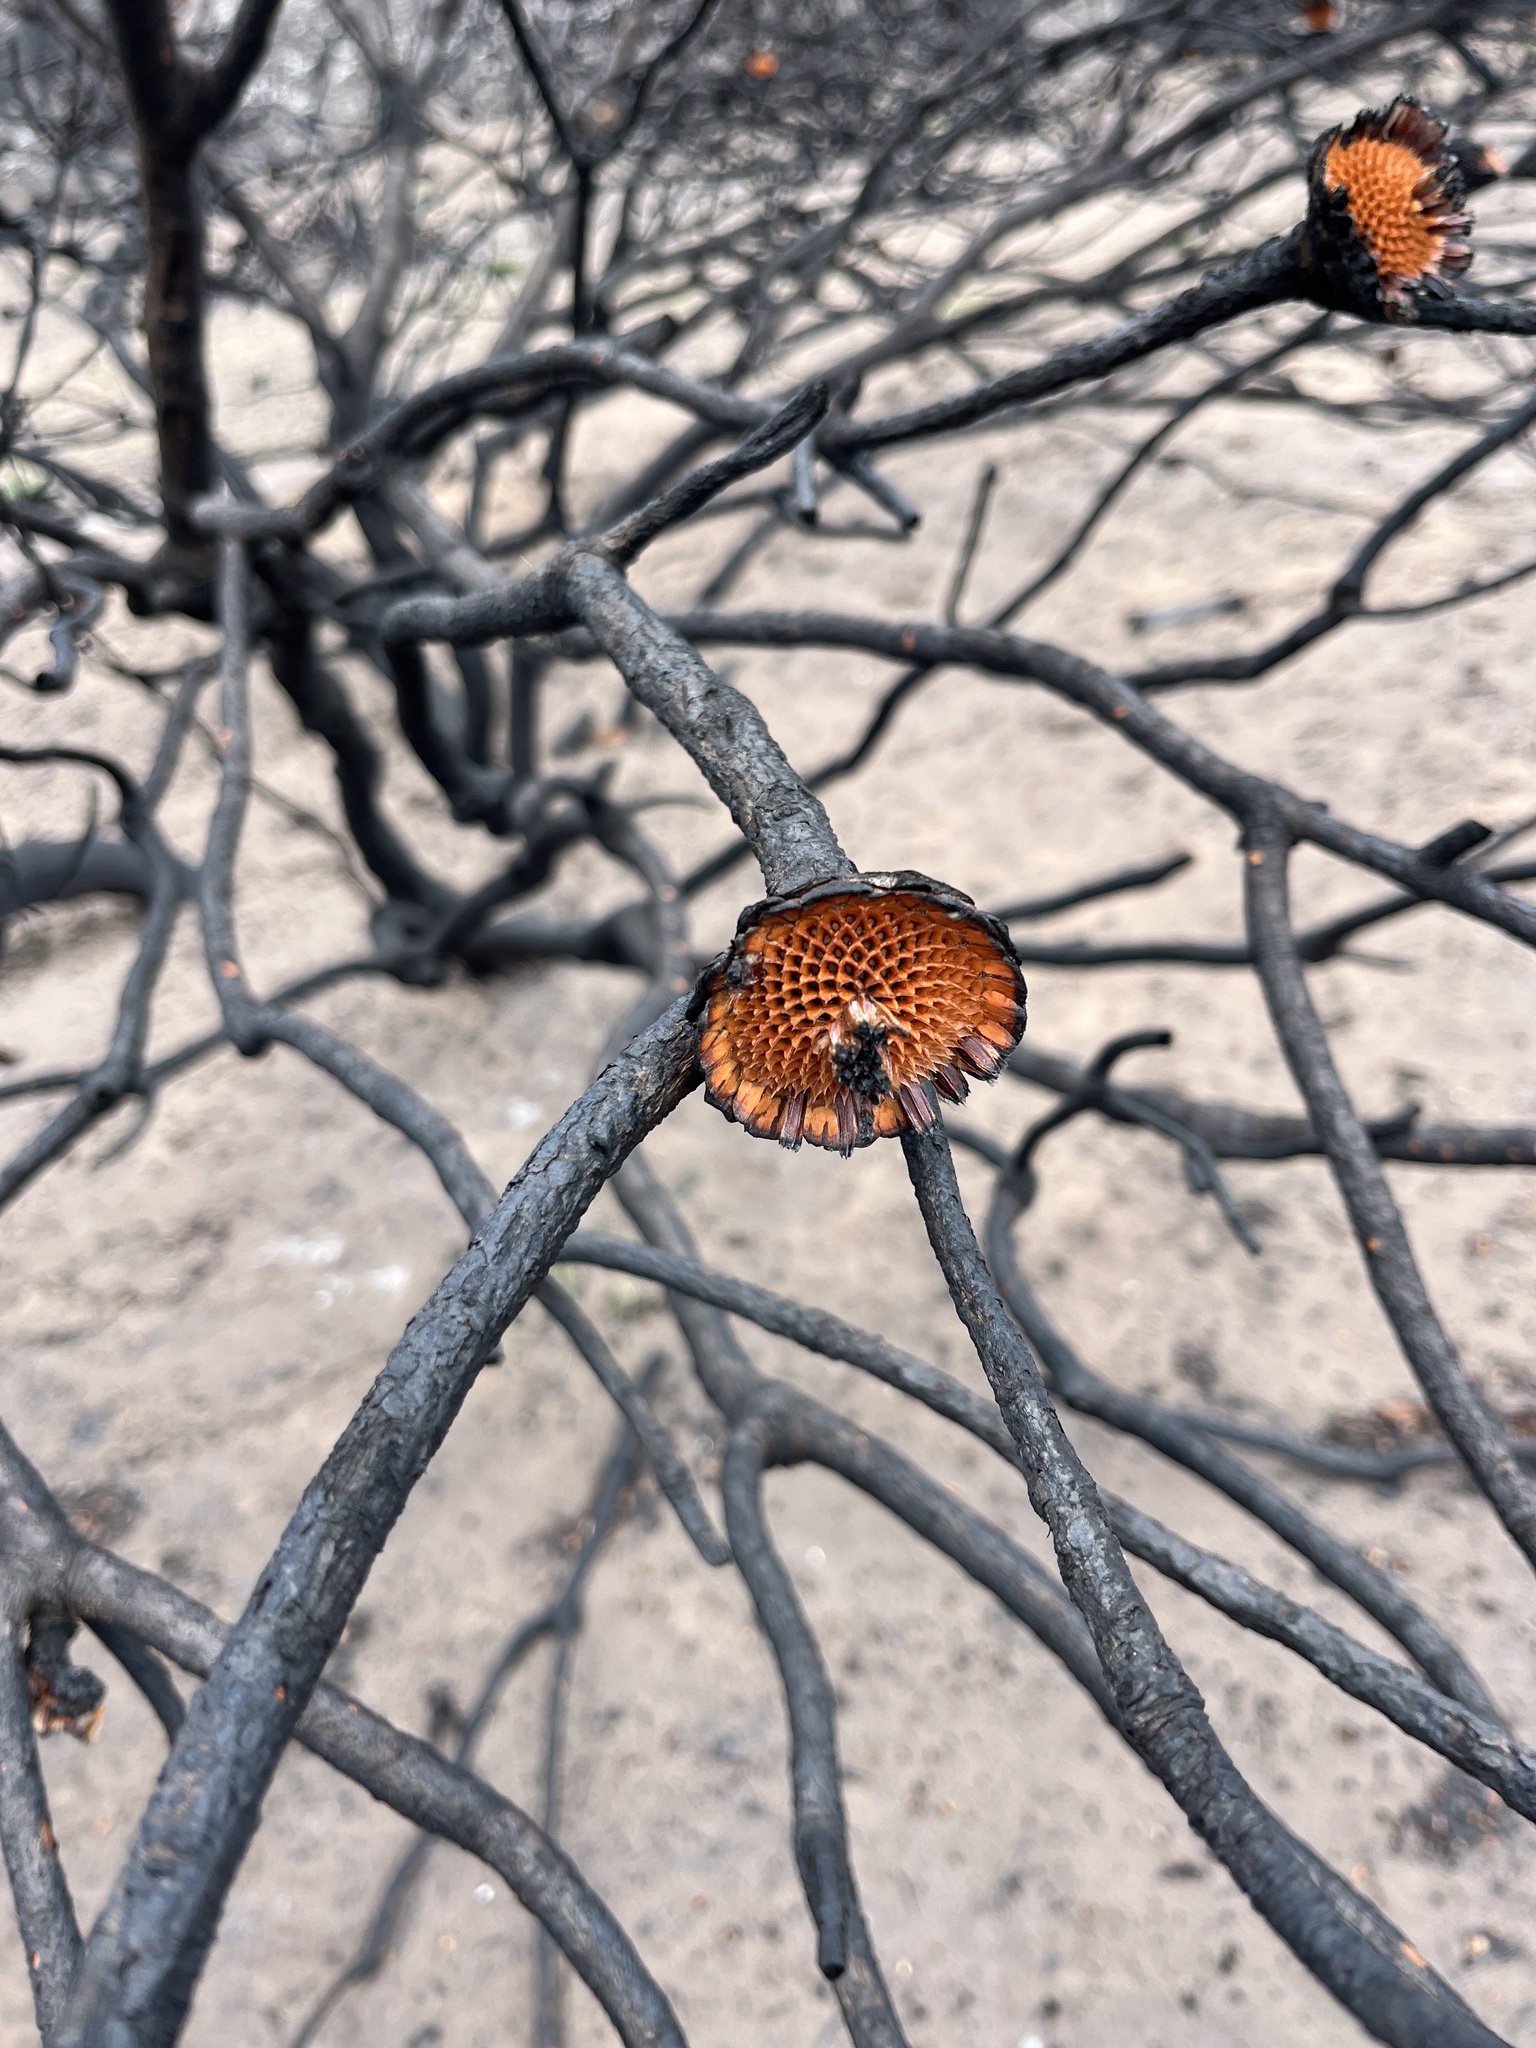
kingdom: Plantae
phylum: Tracheophyta
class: Magnoliopsida
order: Proteales
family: Proteaceae
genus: Protea
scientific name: Protea susannae
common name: Foetid-leaf sugarbush
